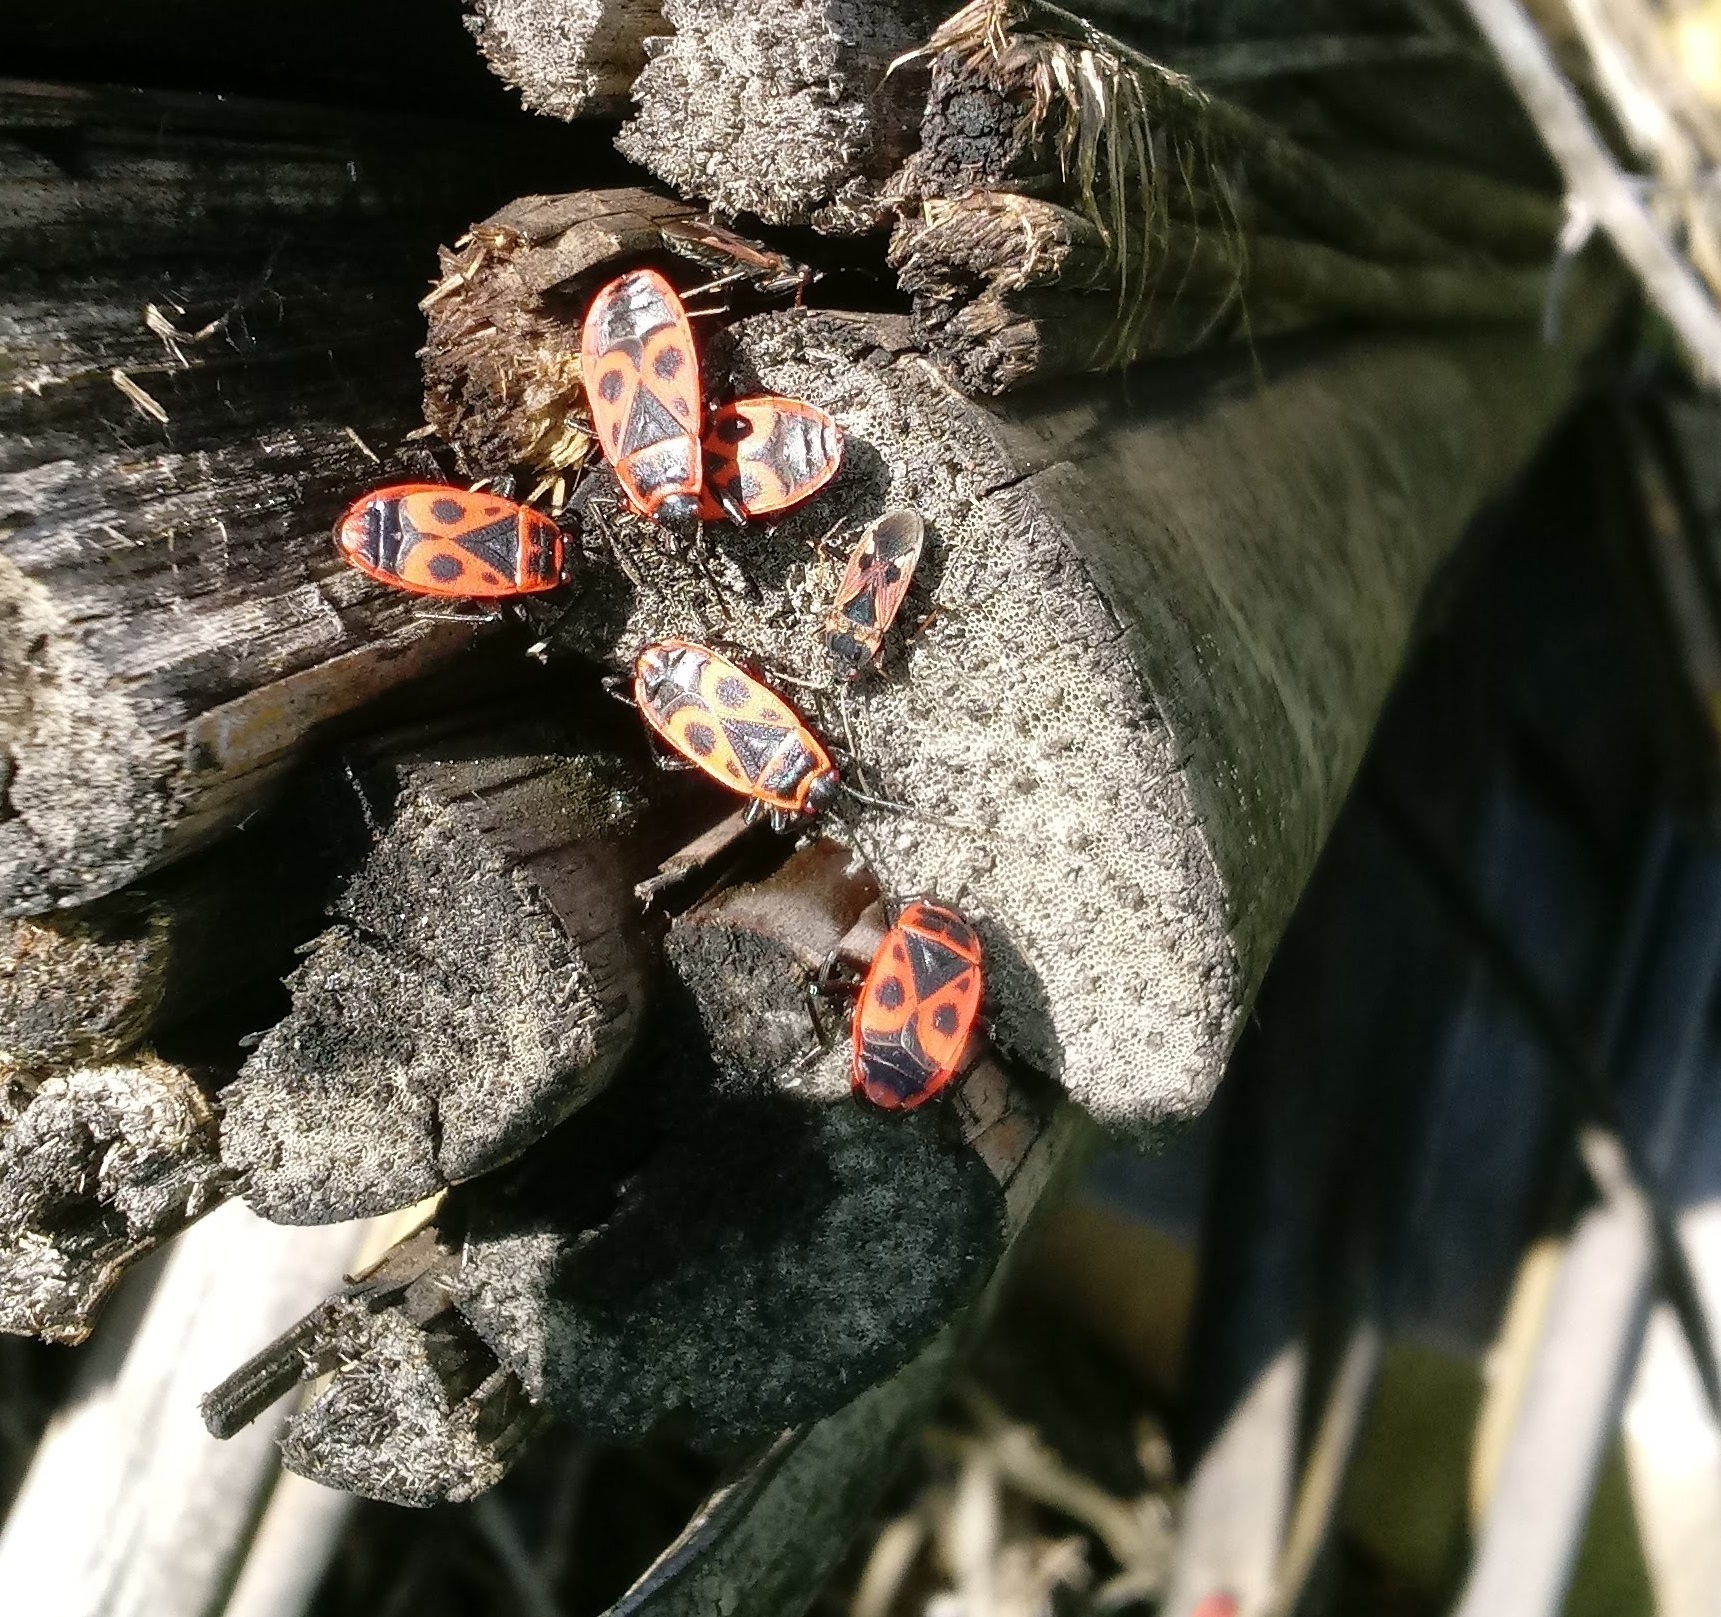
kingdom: Animalia
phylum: Arthropoda
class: Insecta
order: Hemiptera
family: Pyrrhocoridae
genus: Pyrrhocoris
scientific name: Pyrrhocoris apterus
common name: Firebug
